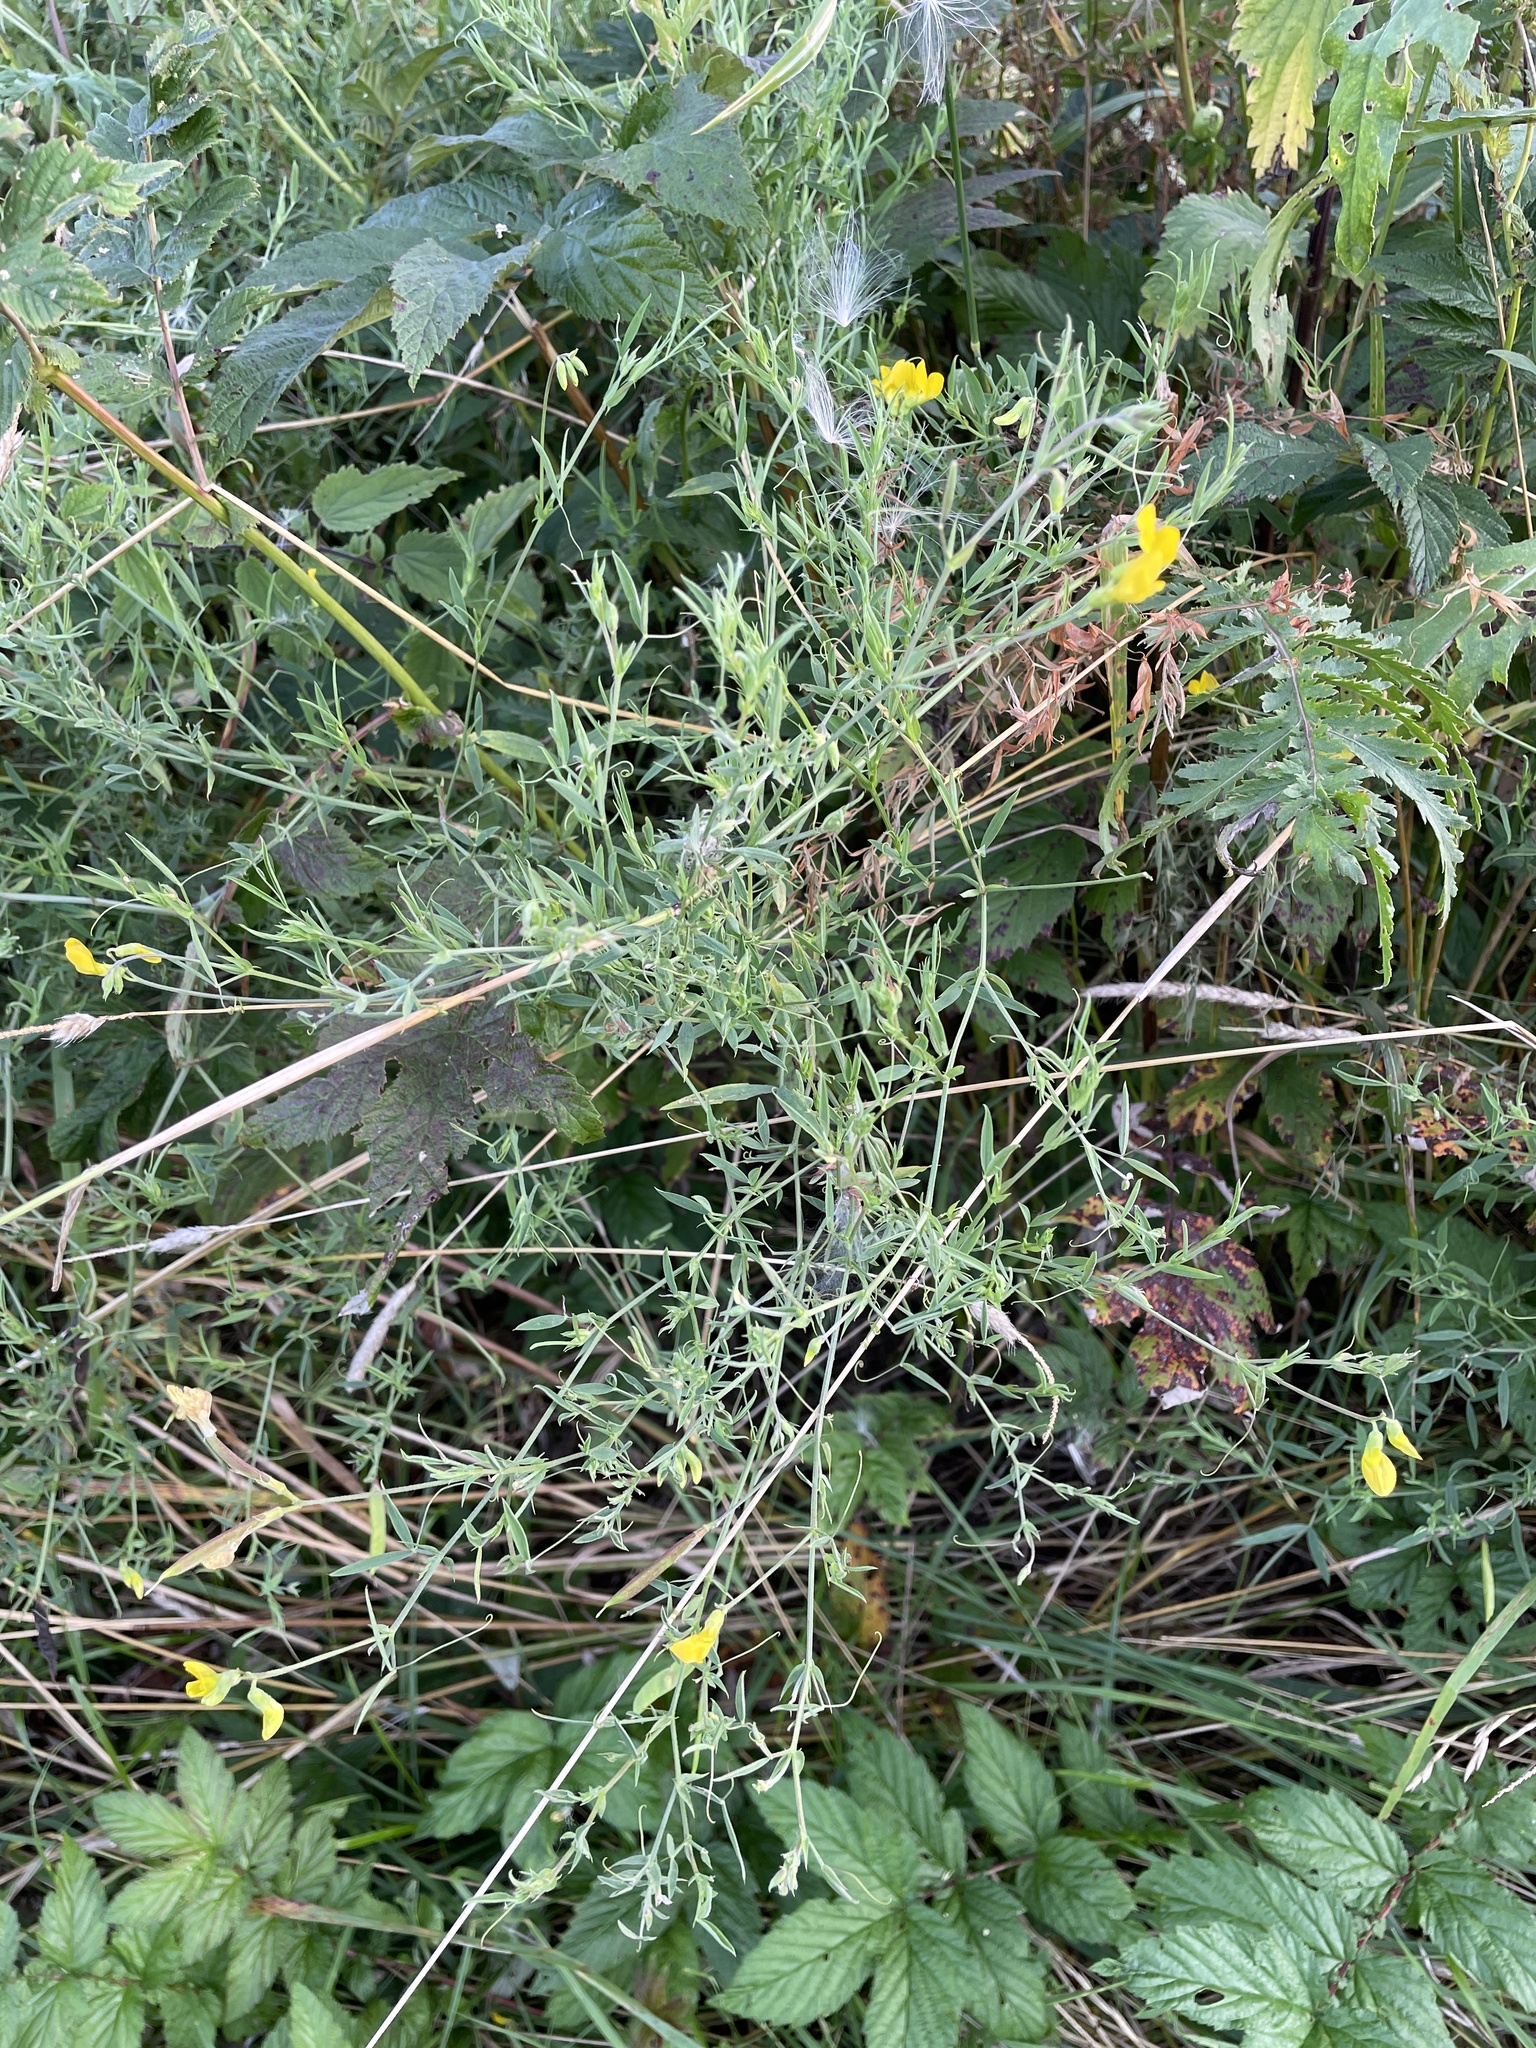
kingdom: Plantae
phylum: Tracheophyta
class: Magnoliopsida
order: Fabales
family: Fabaceae
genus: Lathyrus
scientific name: Lathyrus pratensis
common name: Meadow vetchling
